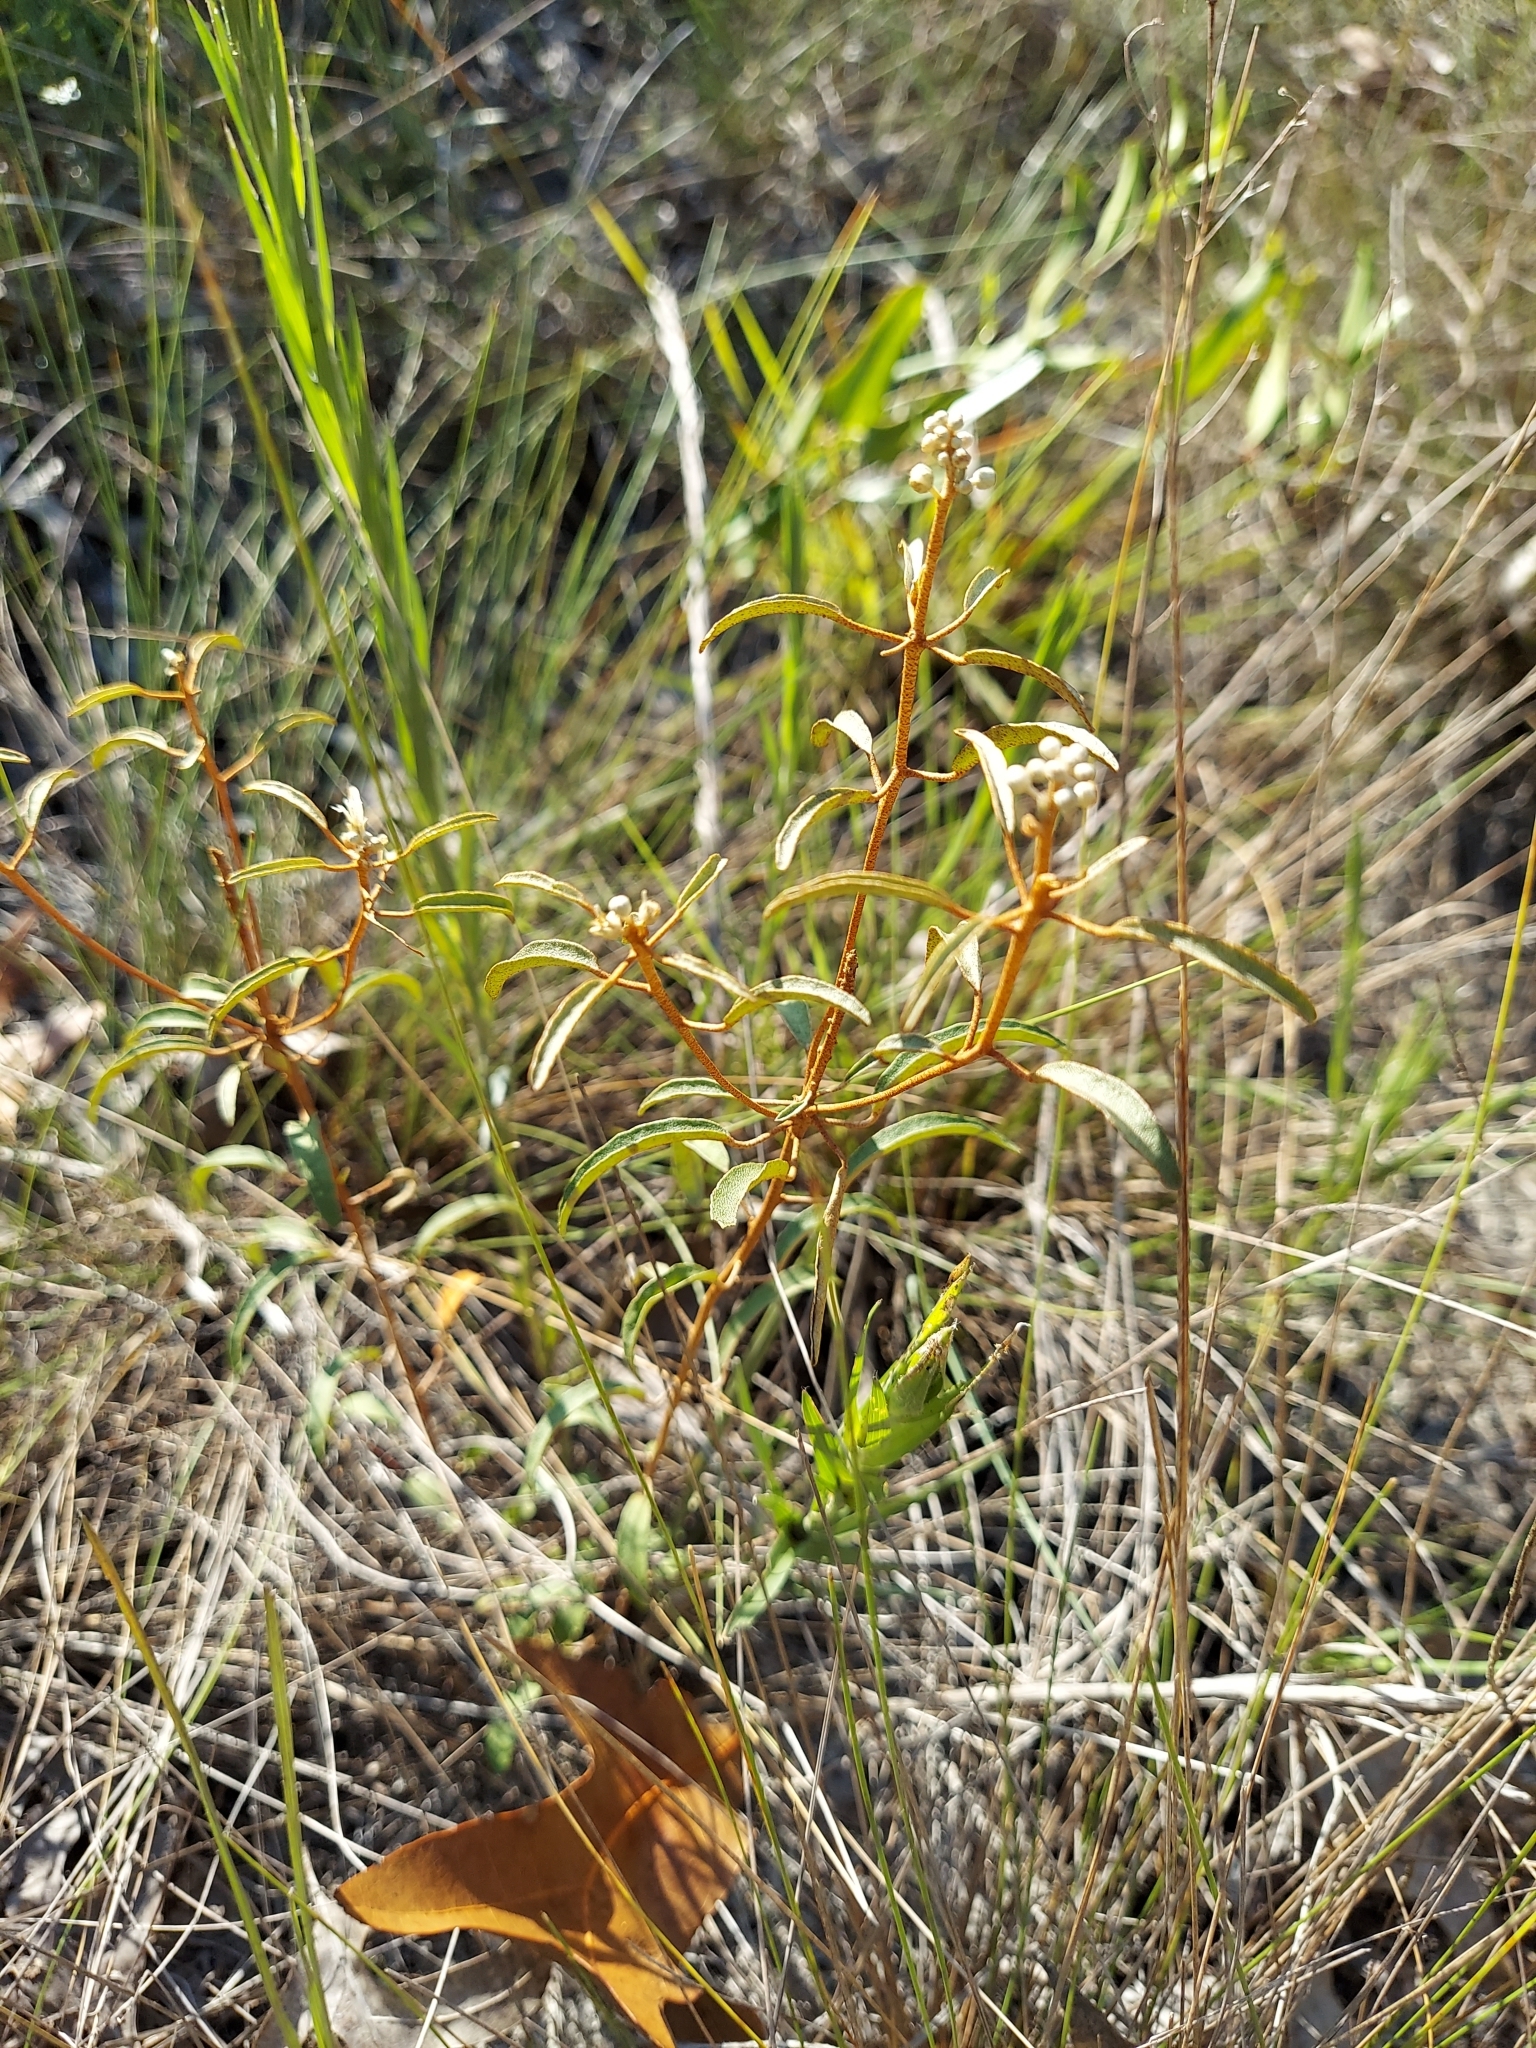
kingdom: Plantae
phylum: Tracheophyta
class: Magnoliopsida
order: Malpighiales
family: Euphorbiaceae
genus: Croton
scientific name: Croton argyranthemus
